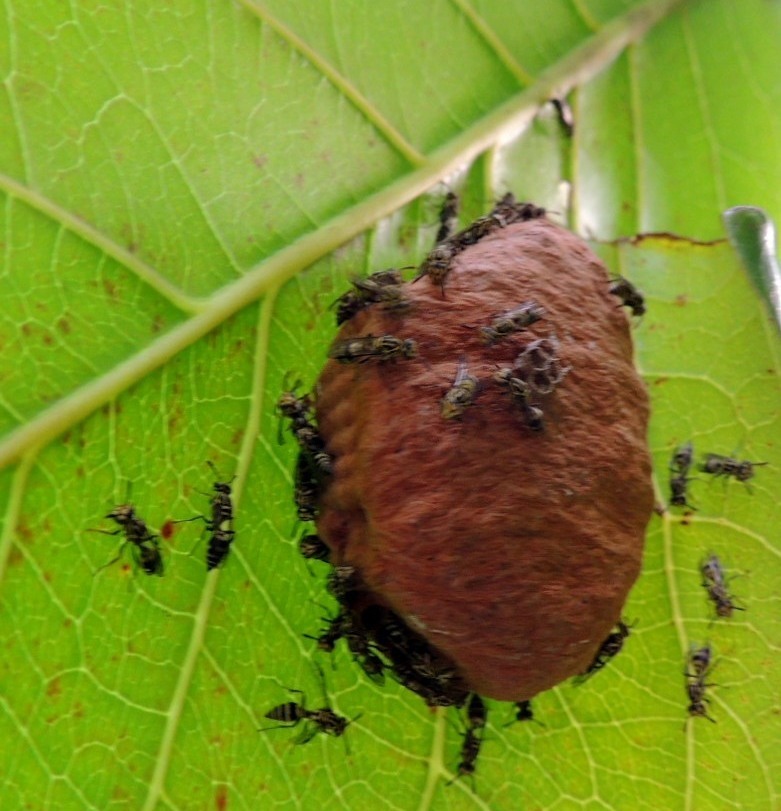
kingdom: Animalia
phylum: Arthropoda
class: Insecta
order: Hymenoptera
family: Vespidae
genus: Protopolybia
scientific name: Protopolybia exigua
